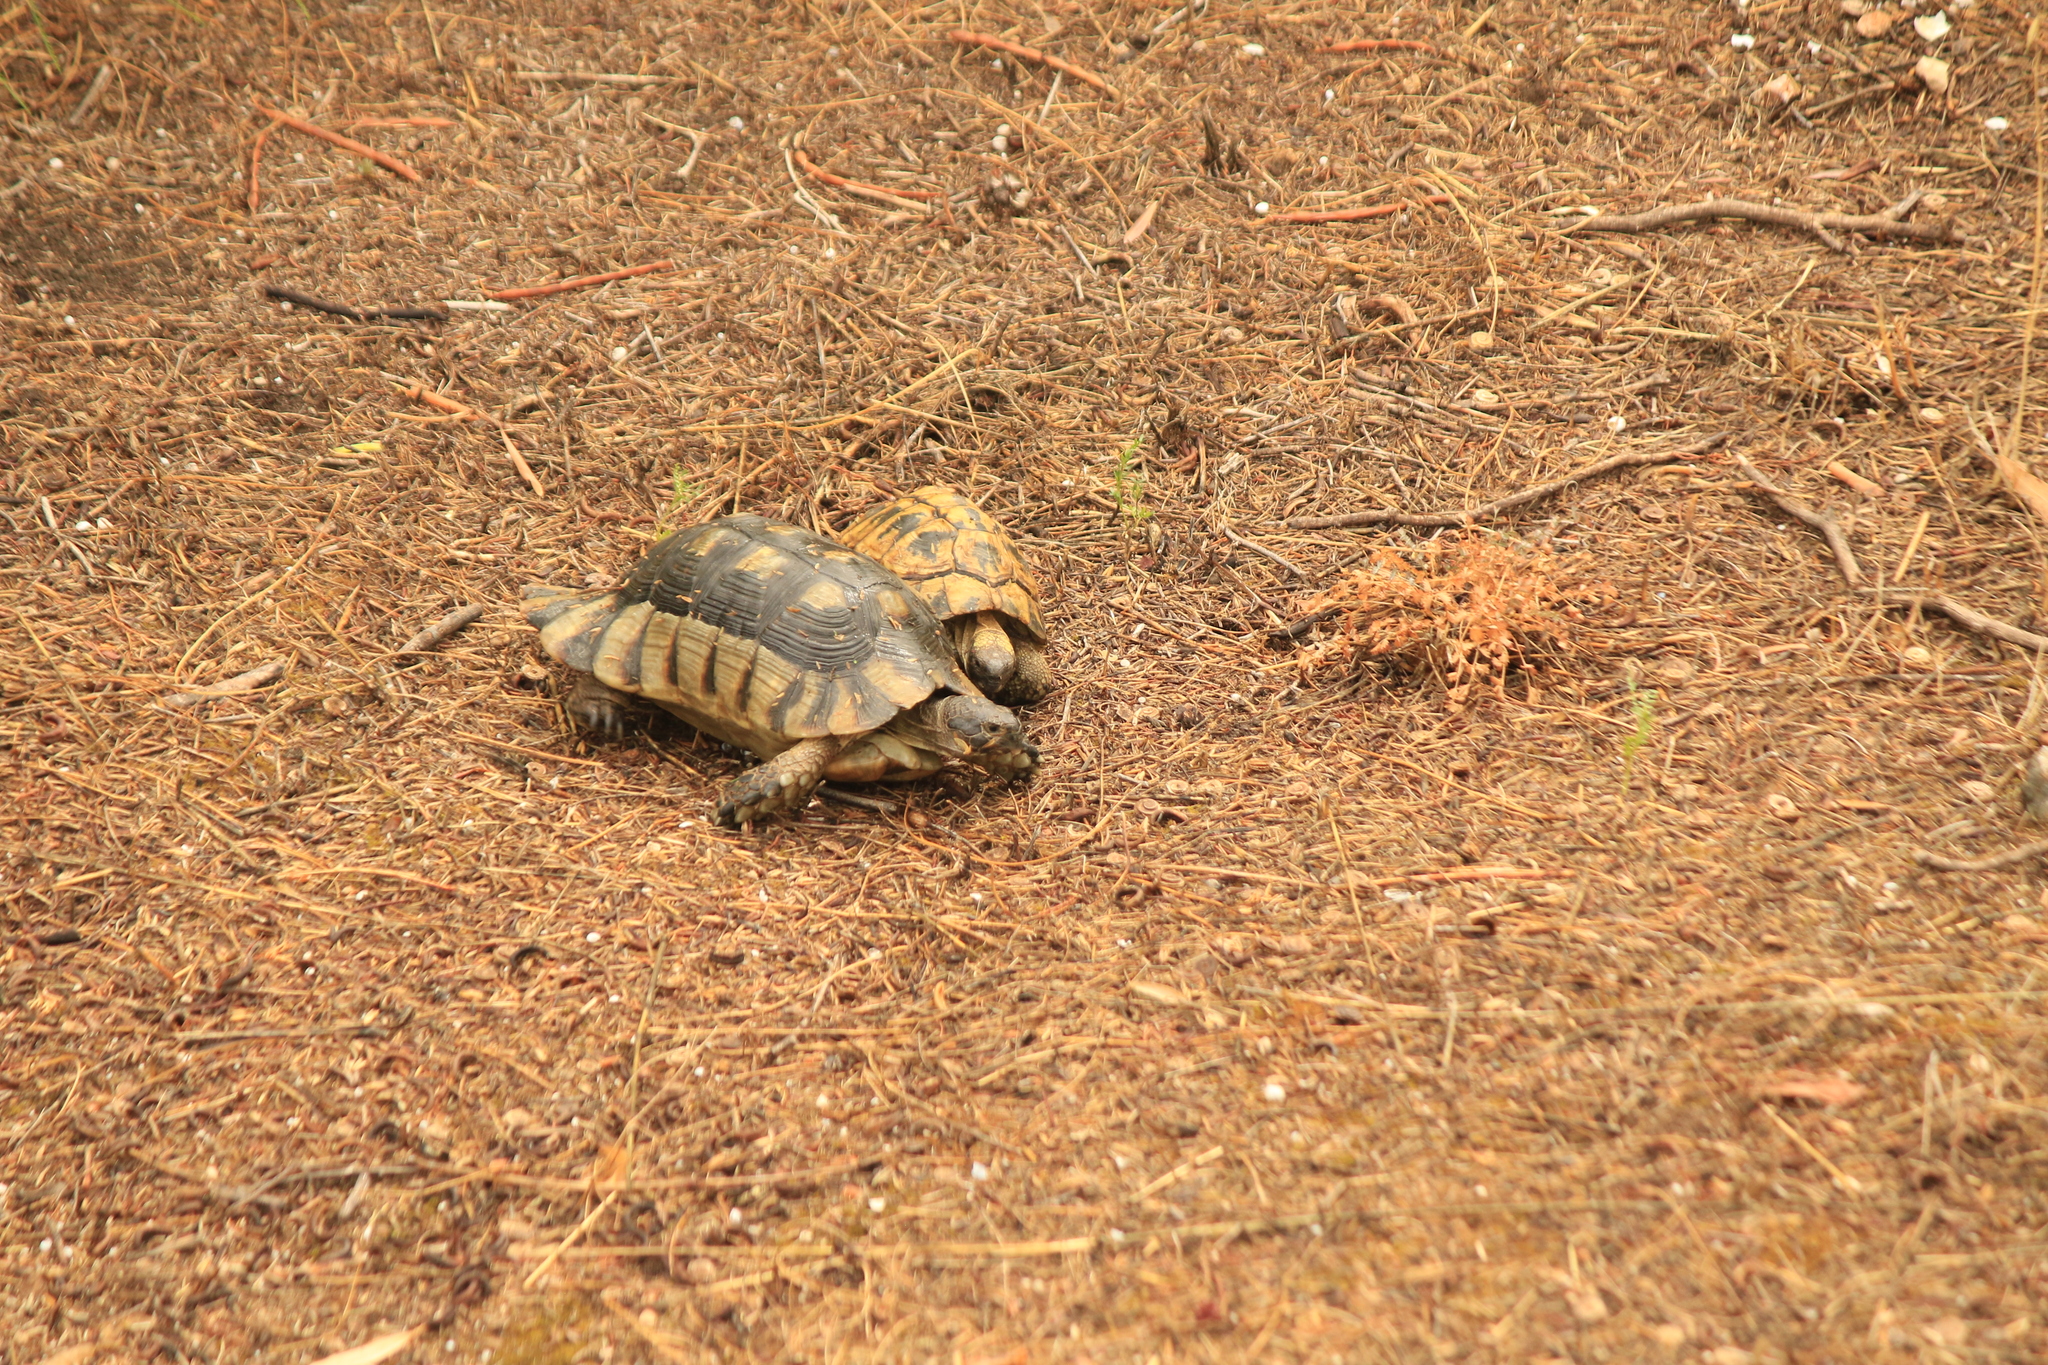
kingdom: Animalia
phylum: Chordata
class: Testudines
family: Testudinidae
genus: Testudo
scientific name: Testudo marginata
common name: Marginated tortoise
